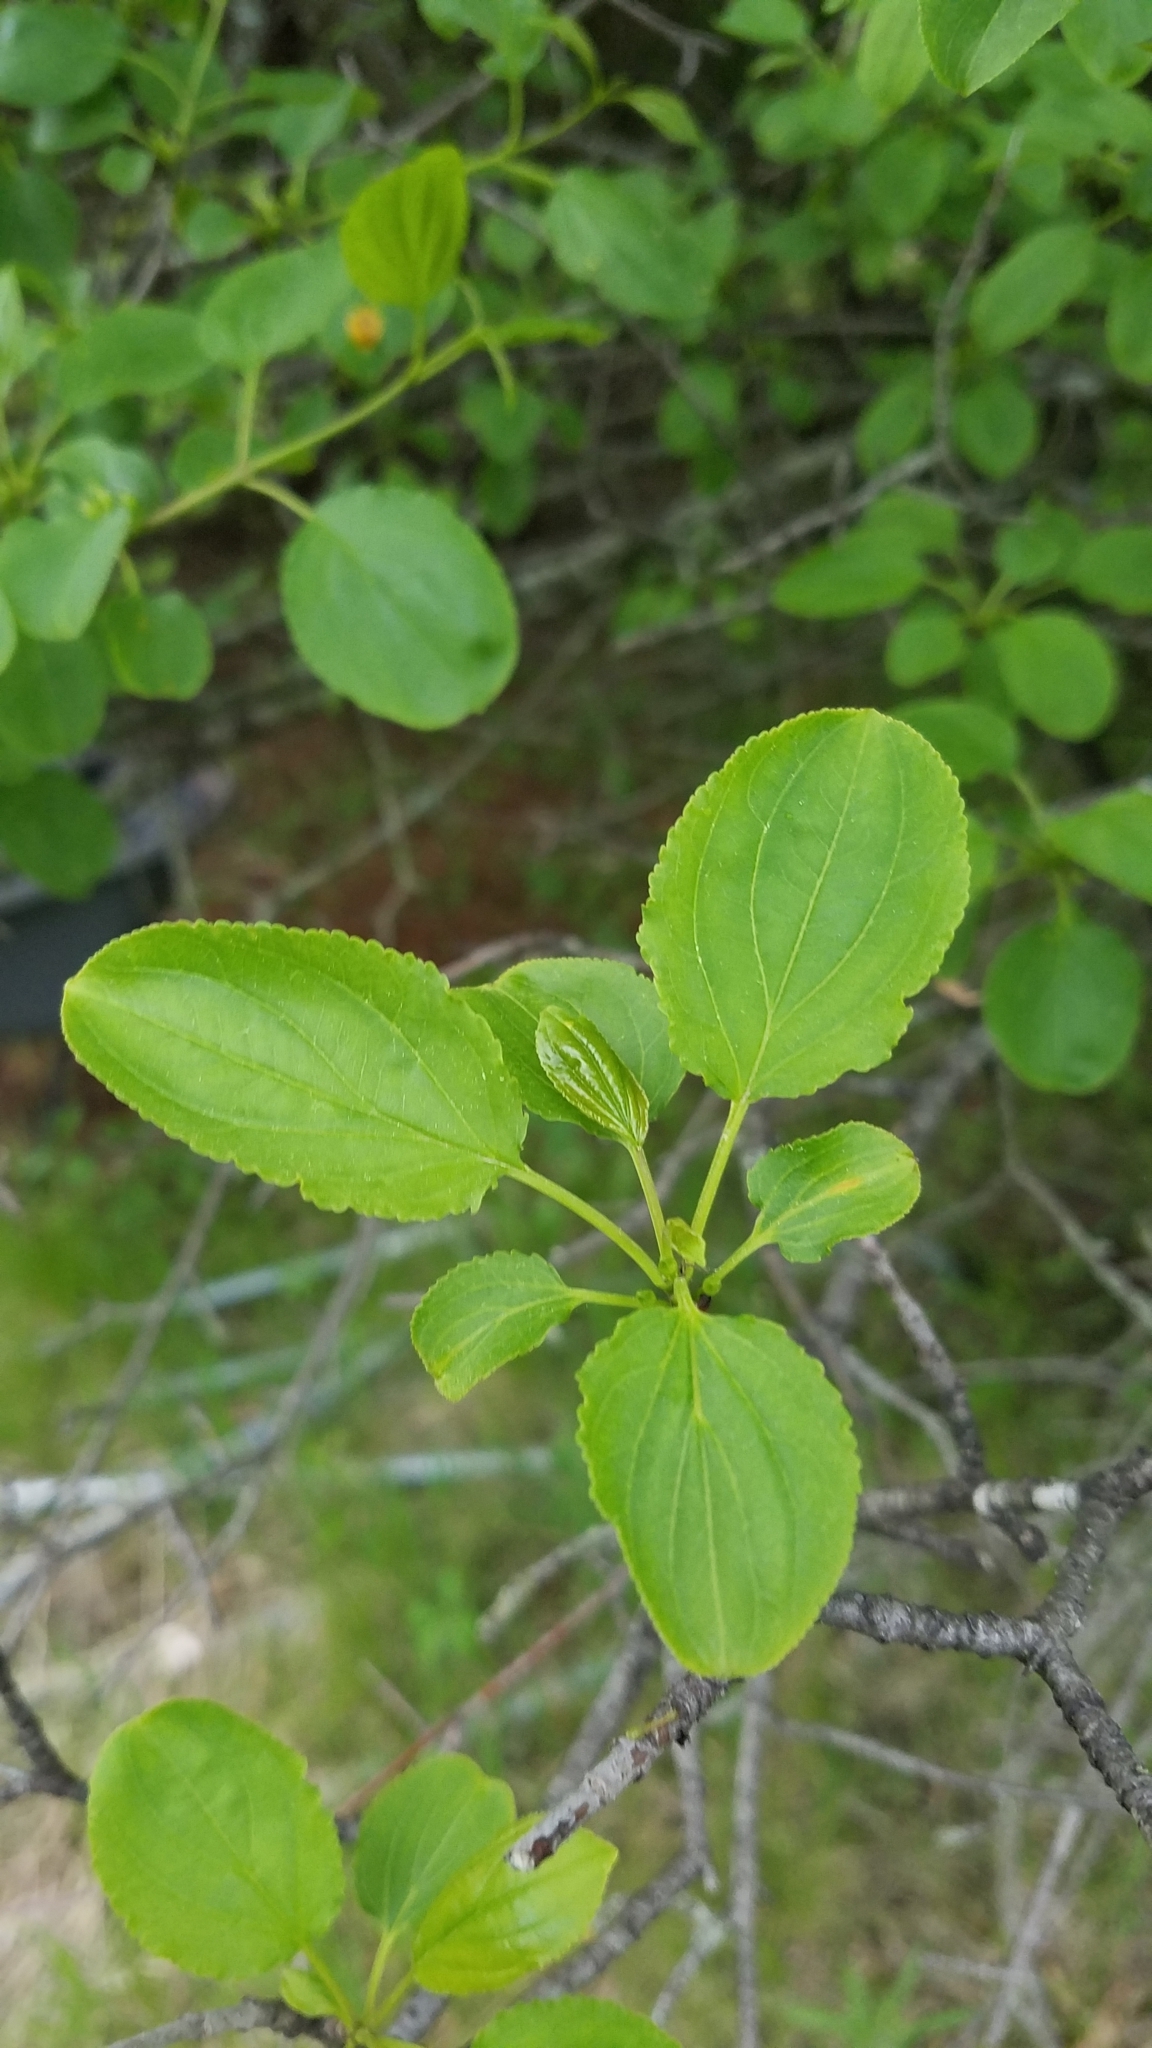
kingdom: Plantae
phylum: Tracheophyta
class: Magnoliopsida
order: Rosales
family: Rhamnaceae
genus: Rhamnus
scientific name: Rhamnus cathartica
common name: Common buckthorn
